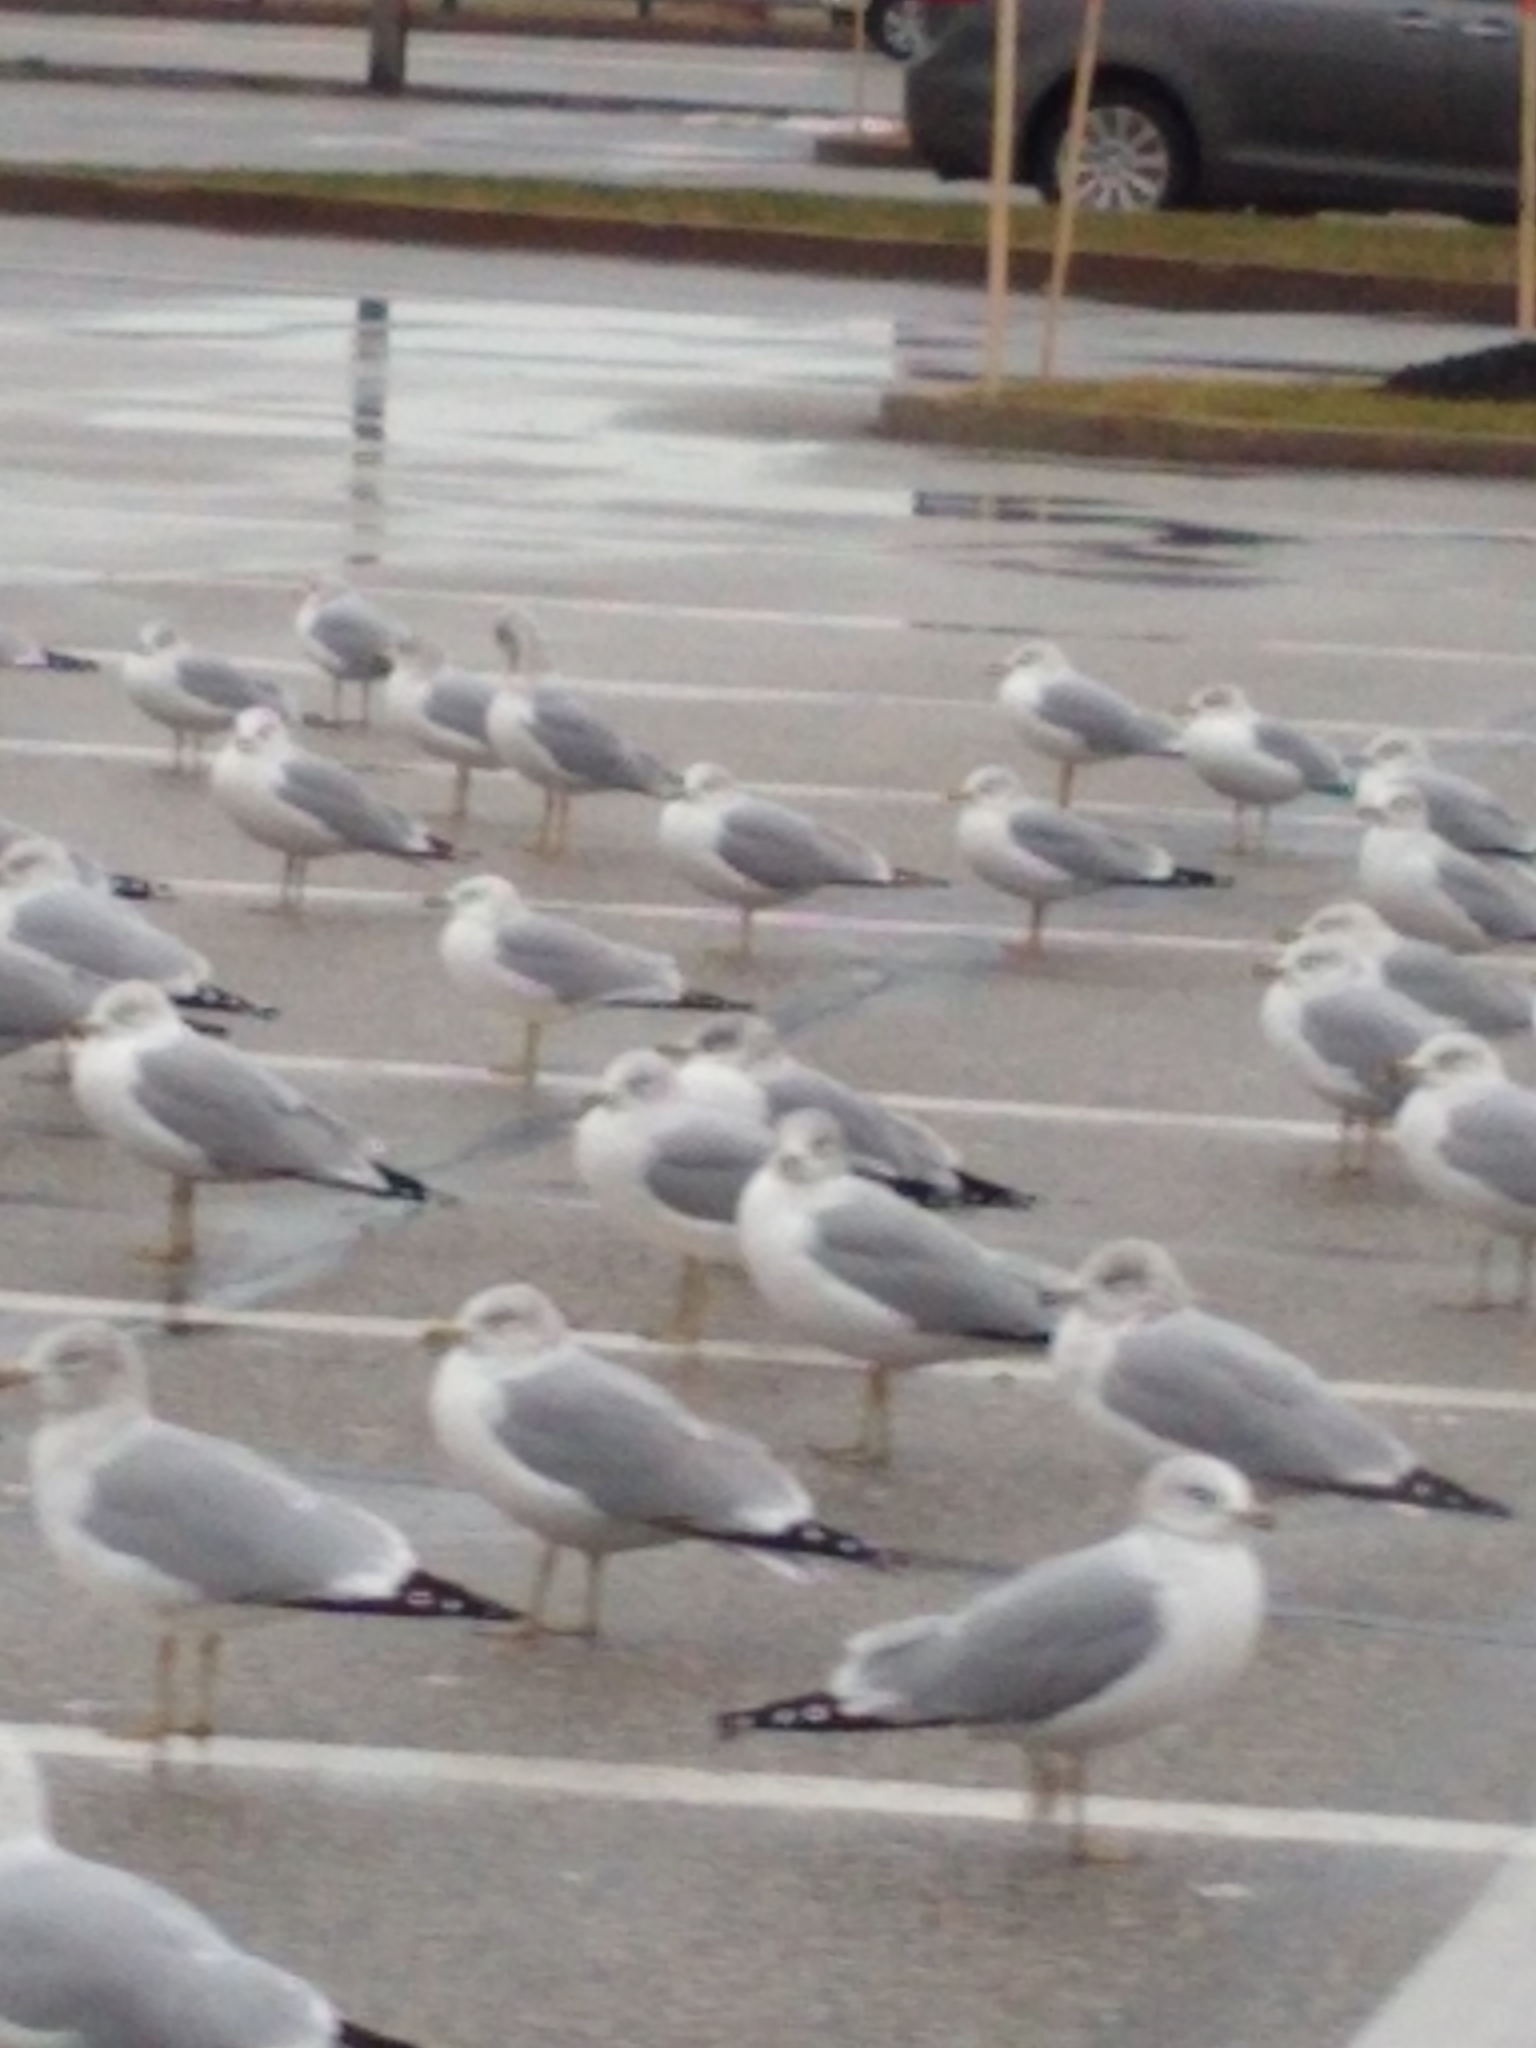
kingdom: Animalia
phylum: Chordata
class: Aves
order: Charadriiformes
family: Laridae
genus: Larus
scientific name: Larus delawarensis
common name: Ring-billed gull
